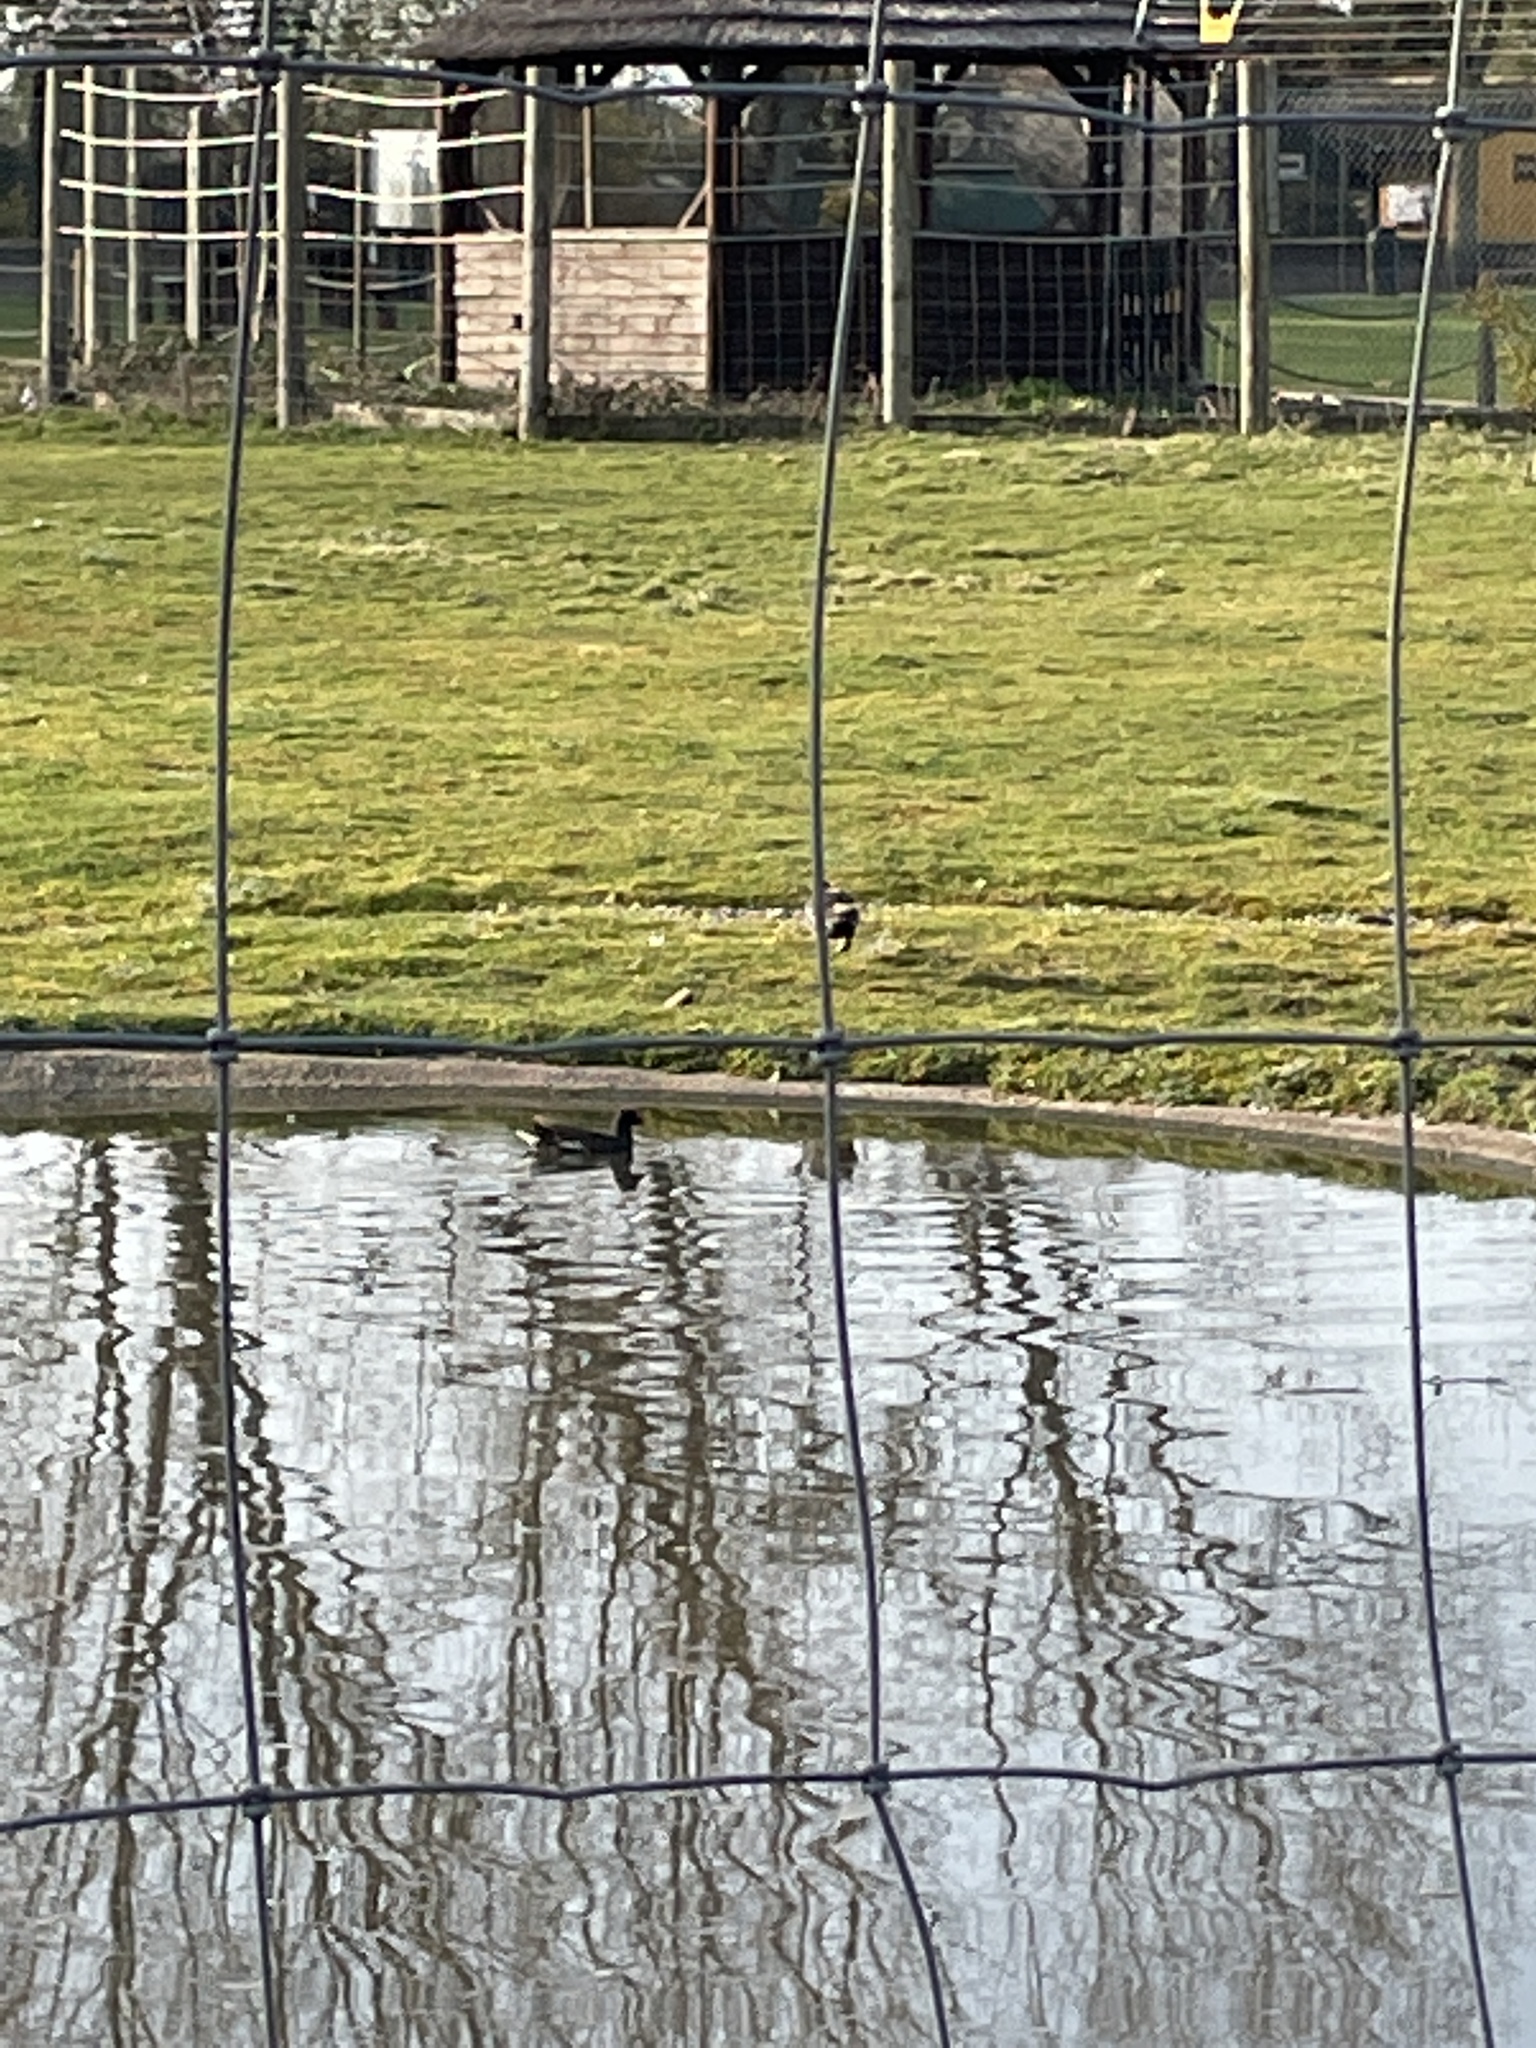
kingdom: Animalia
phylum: Chordata
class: Aves
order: Gruiformes
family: Rallidae
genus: Gallinula
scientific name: Gallinula chloropus
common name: Common moorhen
